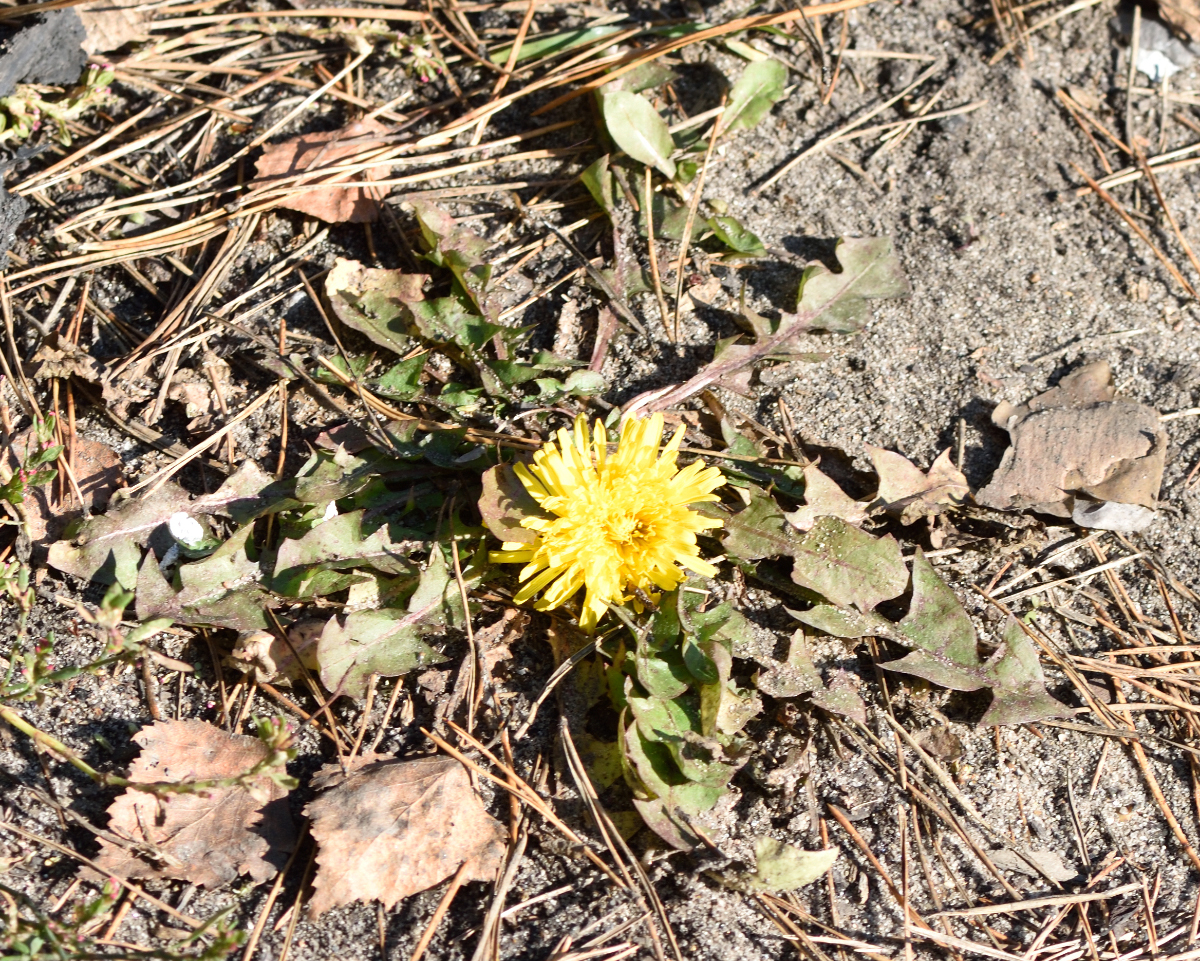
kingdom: Plantae
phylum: Tracheophyta
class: Magnoliopsida
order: Asterales
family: Asteraceae
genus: Taraxacum
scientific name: Taraxacum officinale
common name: Common dandelion
